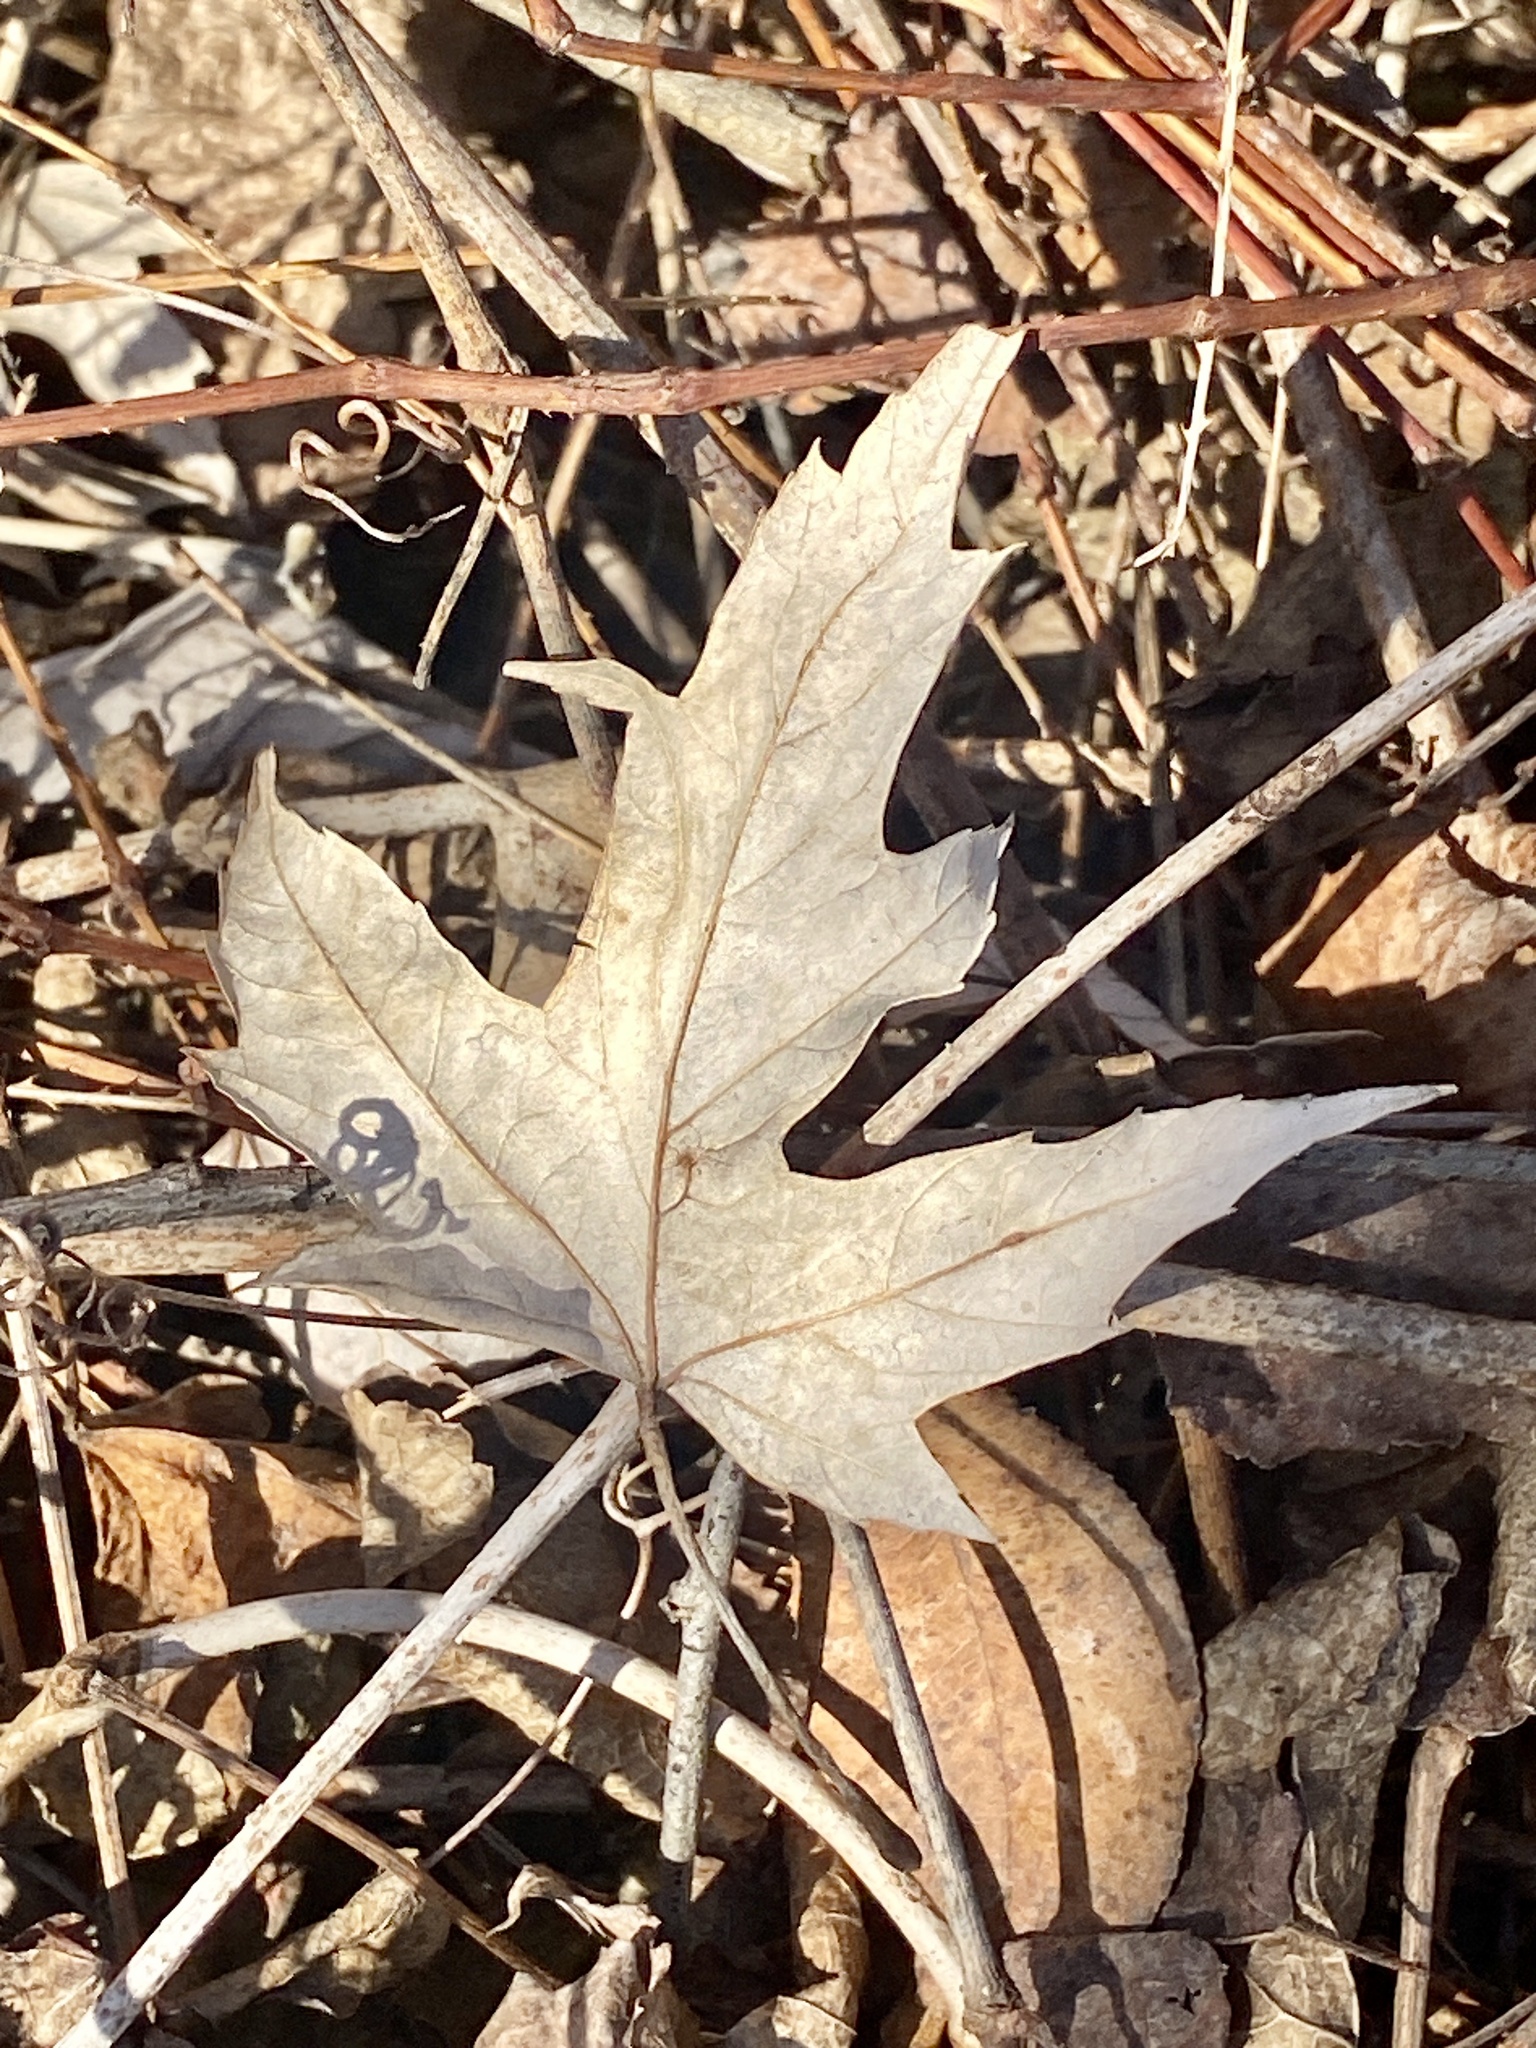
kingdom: Plantae
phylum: Tracheophyta
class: Magnoliopsida
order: Sapindales
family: Sapindaceae
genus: Acer
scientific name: Acer saccharinum
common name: Silver maple
